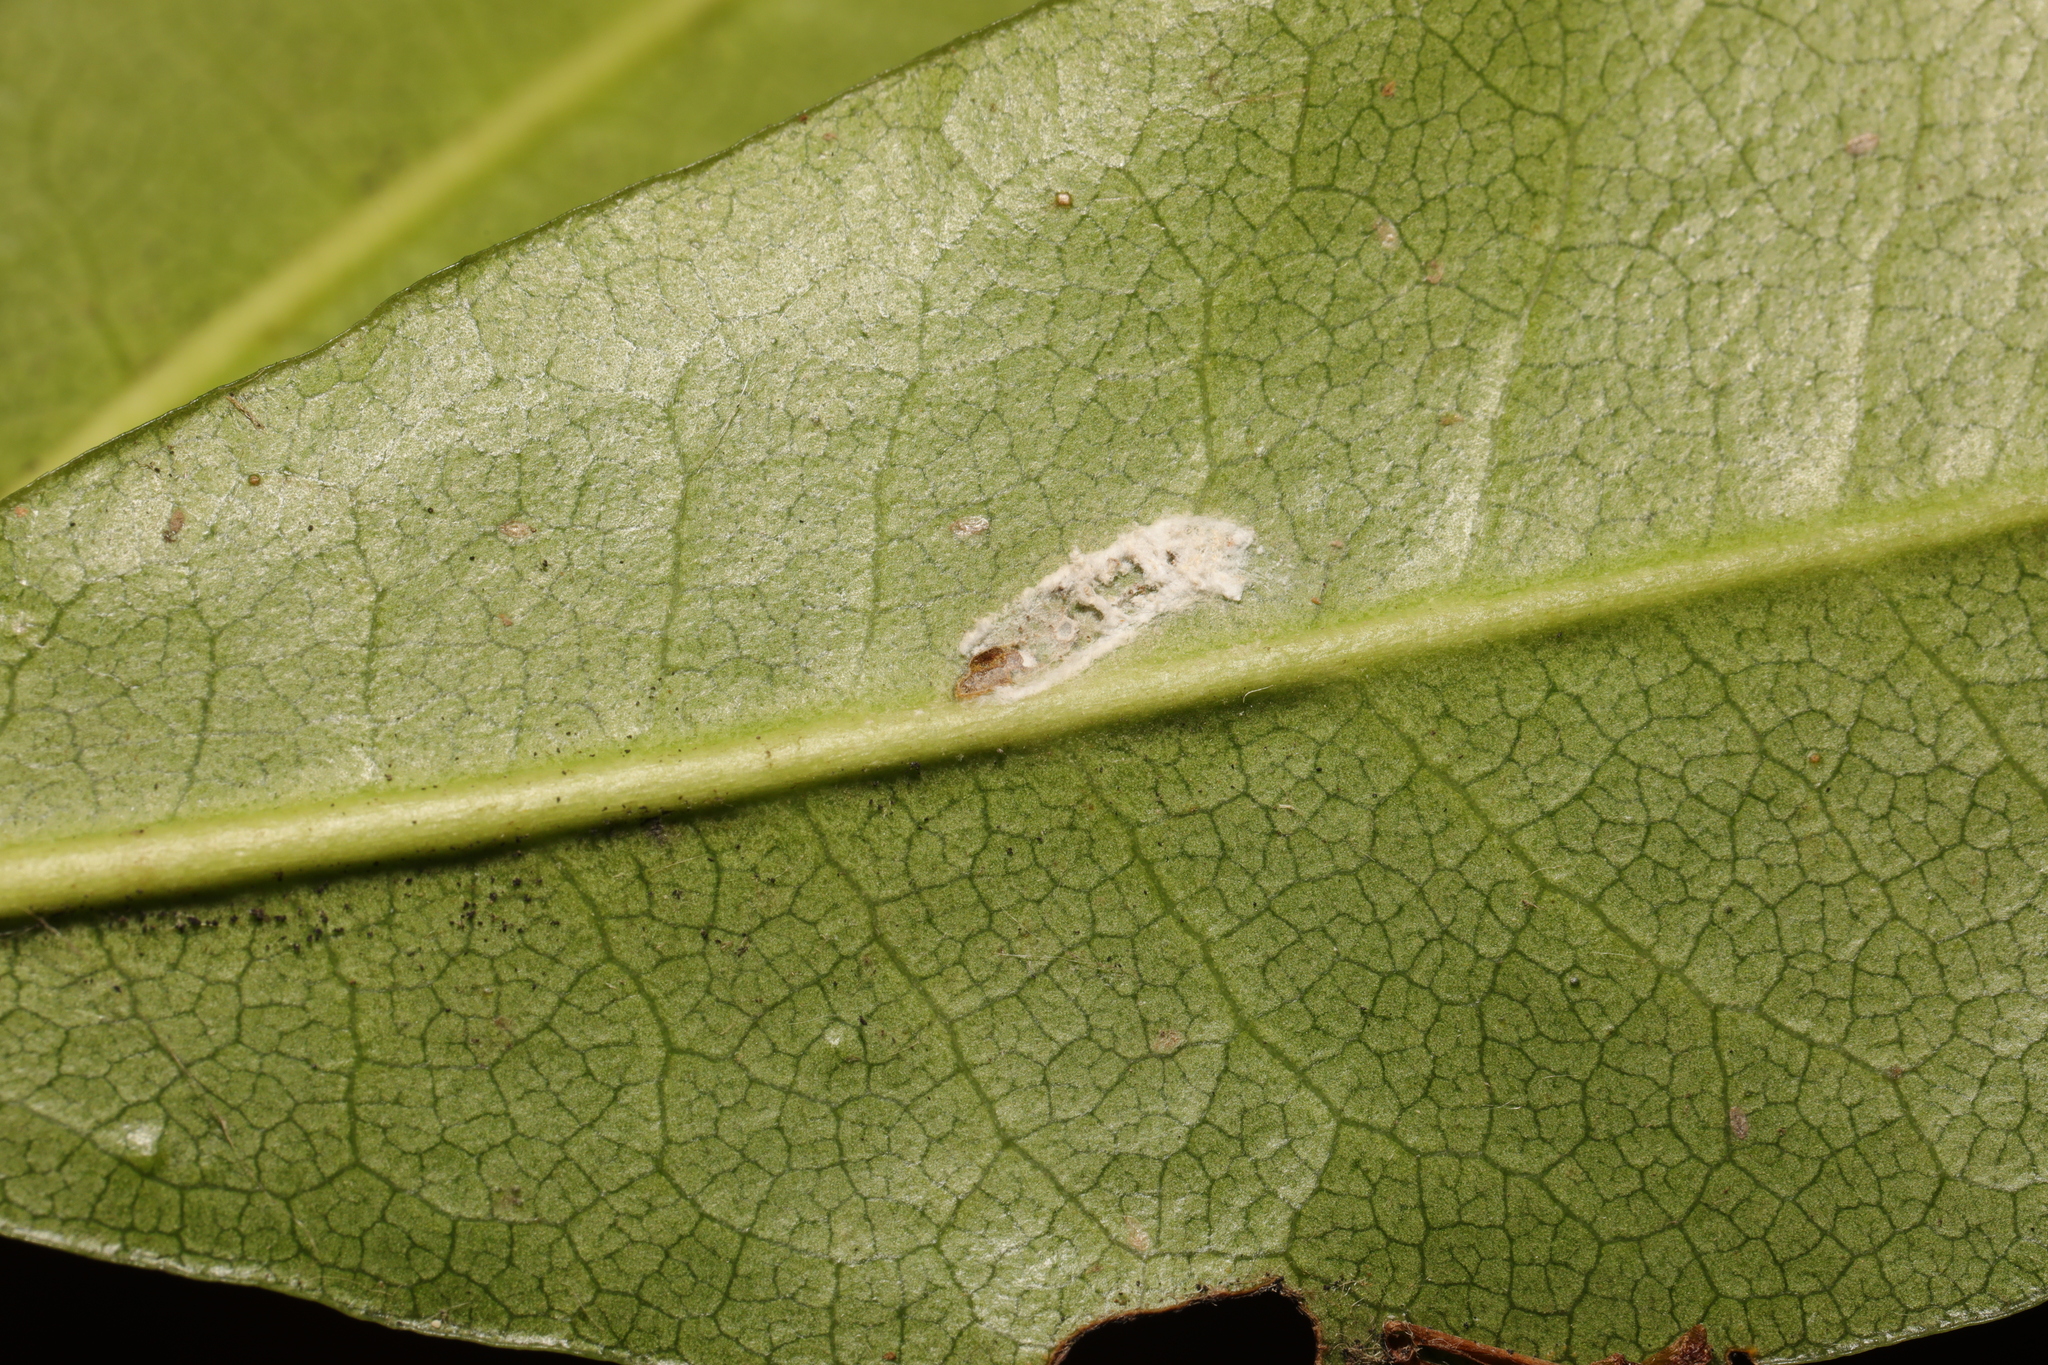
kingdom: Animalia
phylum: Arthropoda
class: Insecta
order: Hemiptera
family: Coccidae
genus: Pulvinaria
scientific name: Pulvinaria floccifera
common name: Cottony camellia scale
